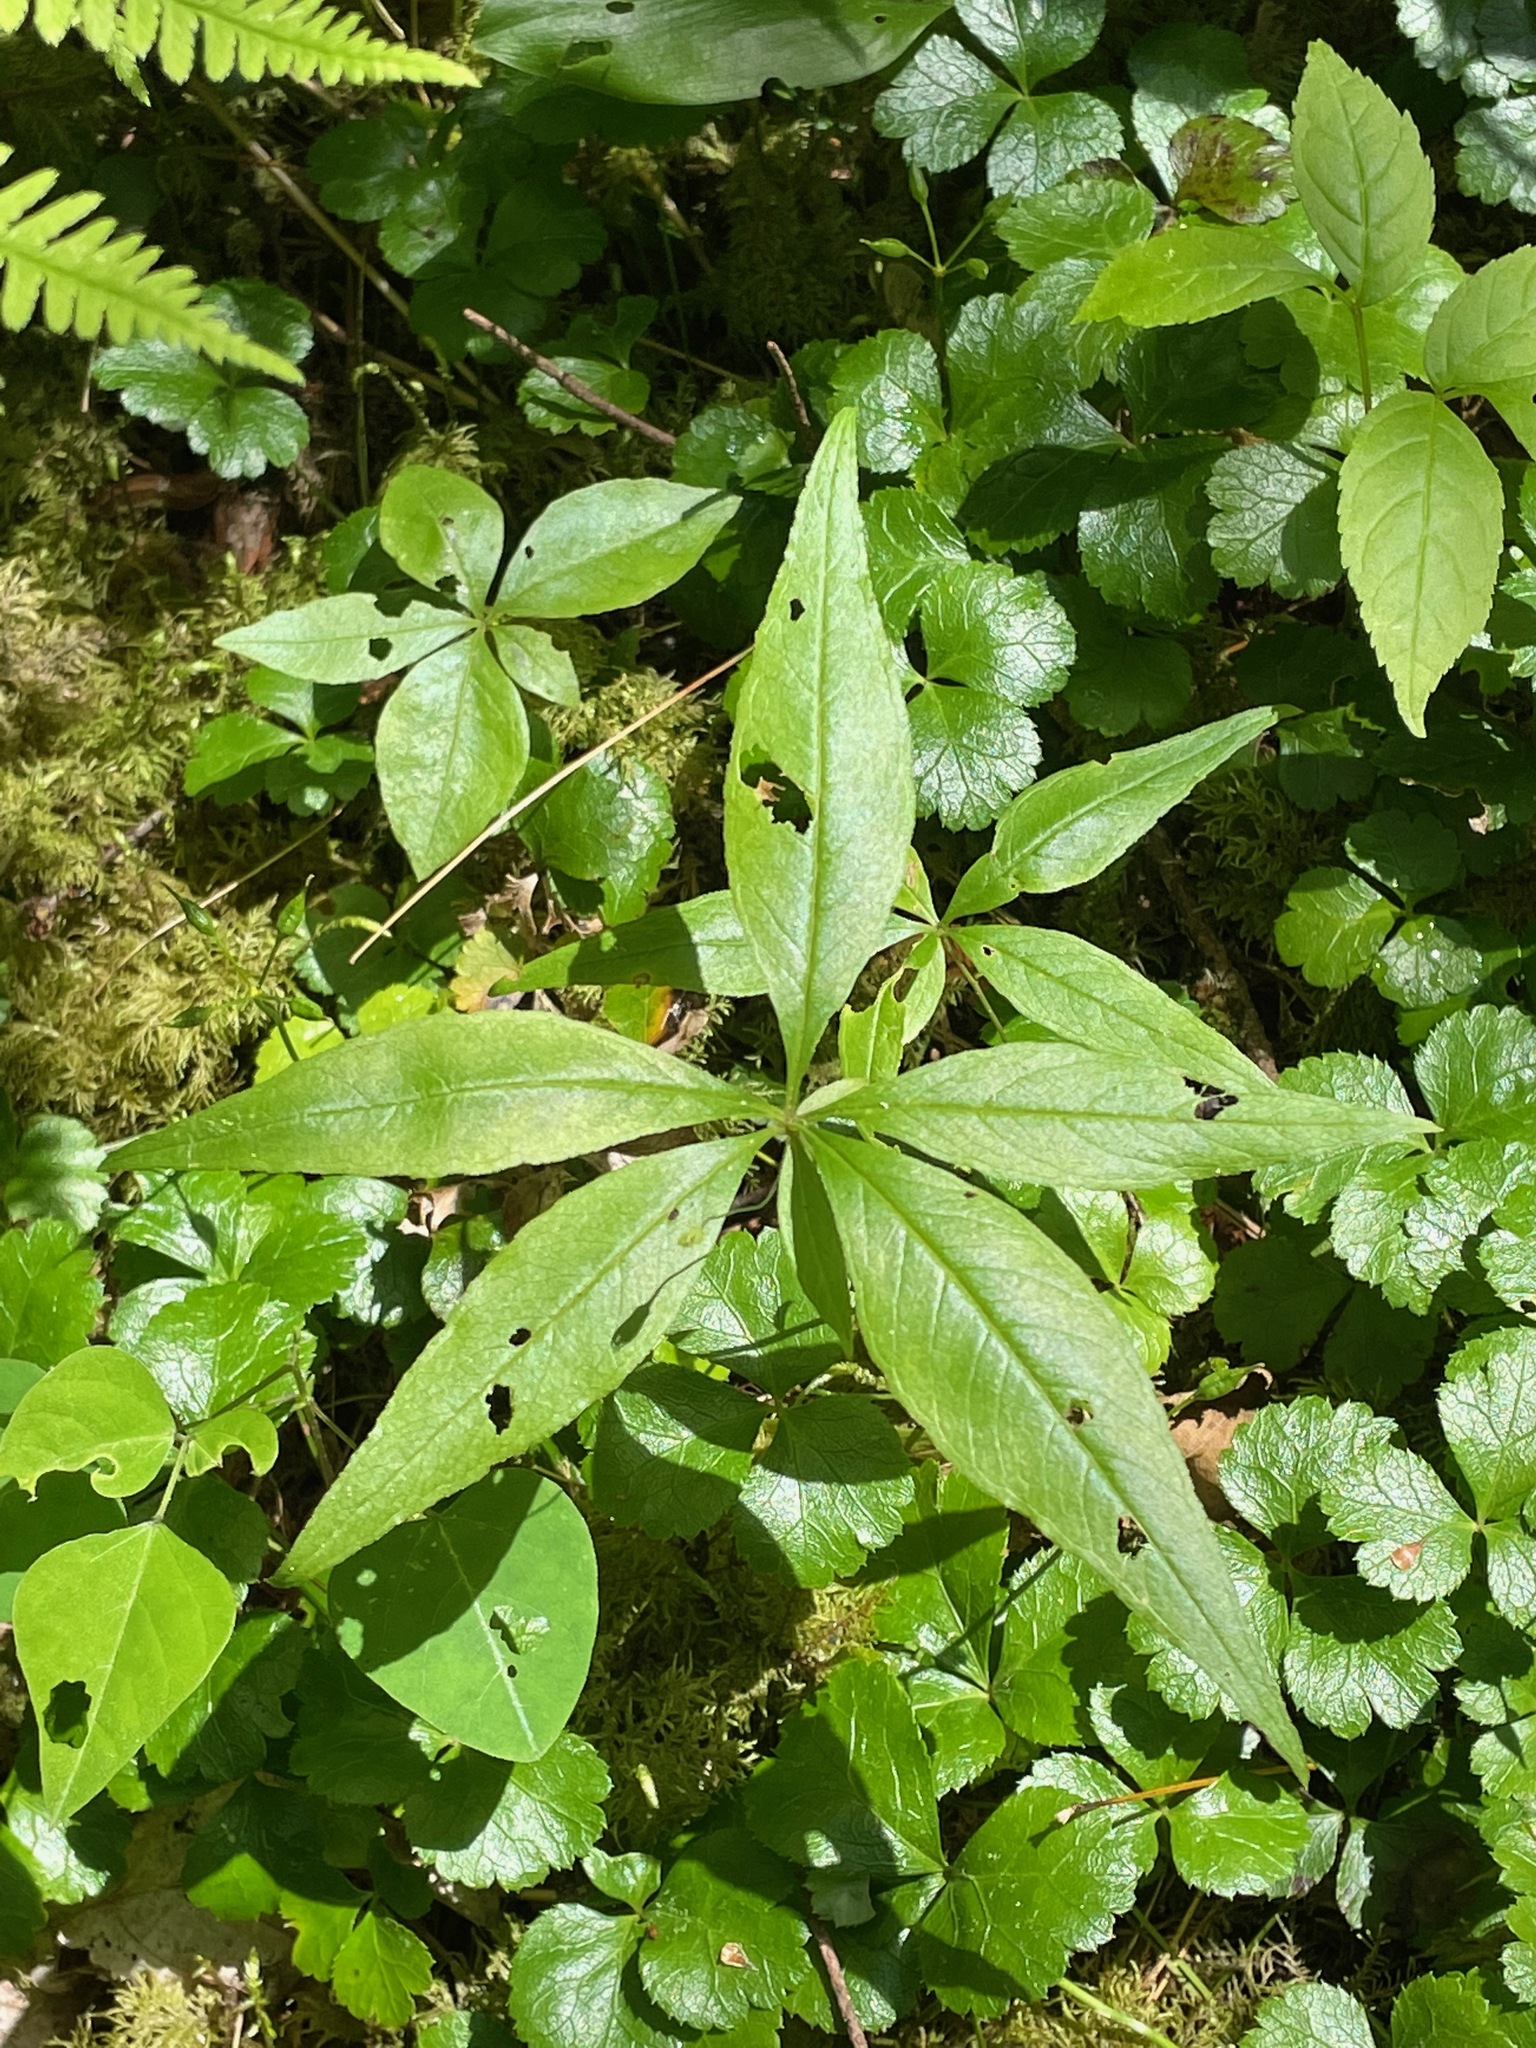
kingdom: Plantae
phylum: Tracheophyta
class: Magnoliopsida
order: Ericales
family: Primulaceae
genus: Lysimachia
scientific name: Lysimachia borealis
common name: American starflower
